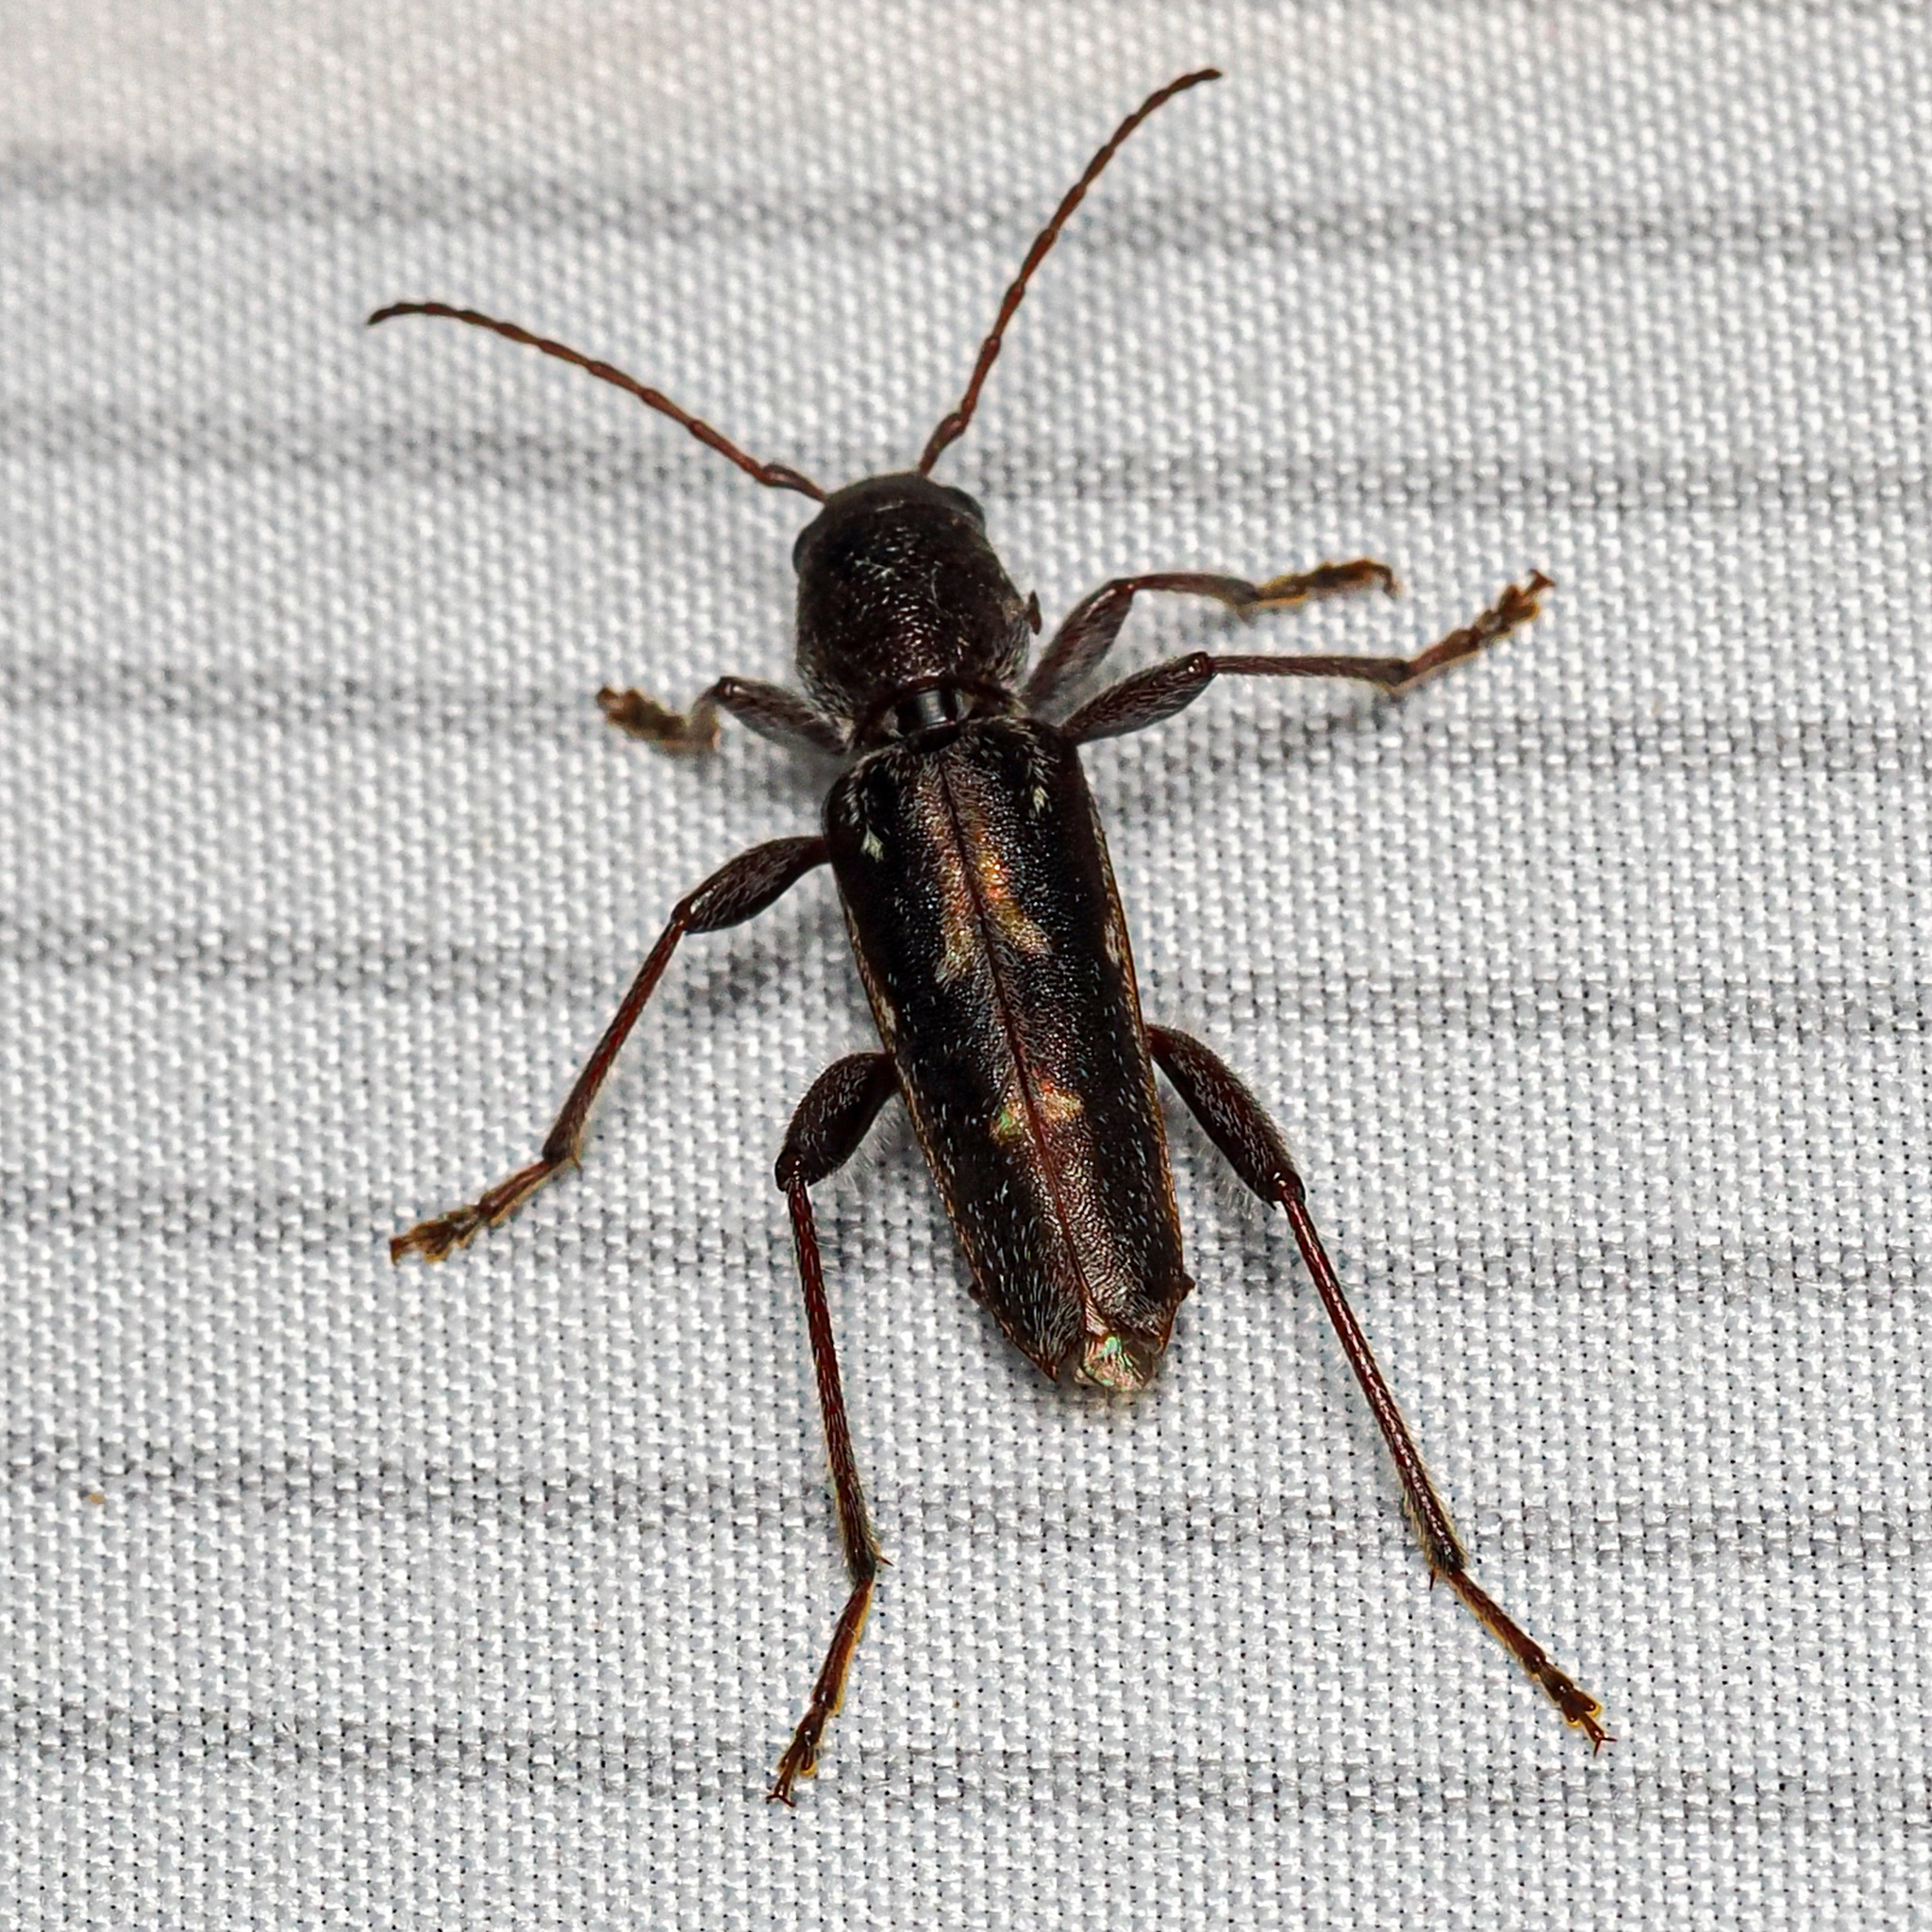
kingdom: Animalia
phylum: Arthropoda
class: Insecta
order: Coleoptera
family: Cerambycidae
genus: Xylotrechus
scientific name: Xylotrechus sagittatus
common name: Arrowhead borer
